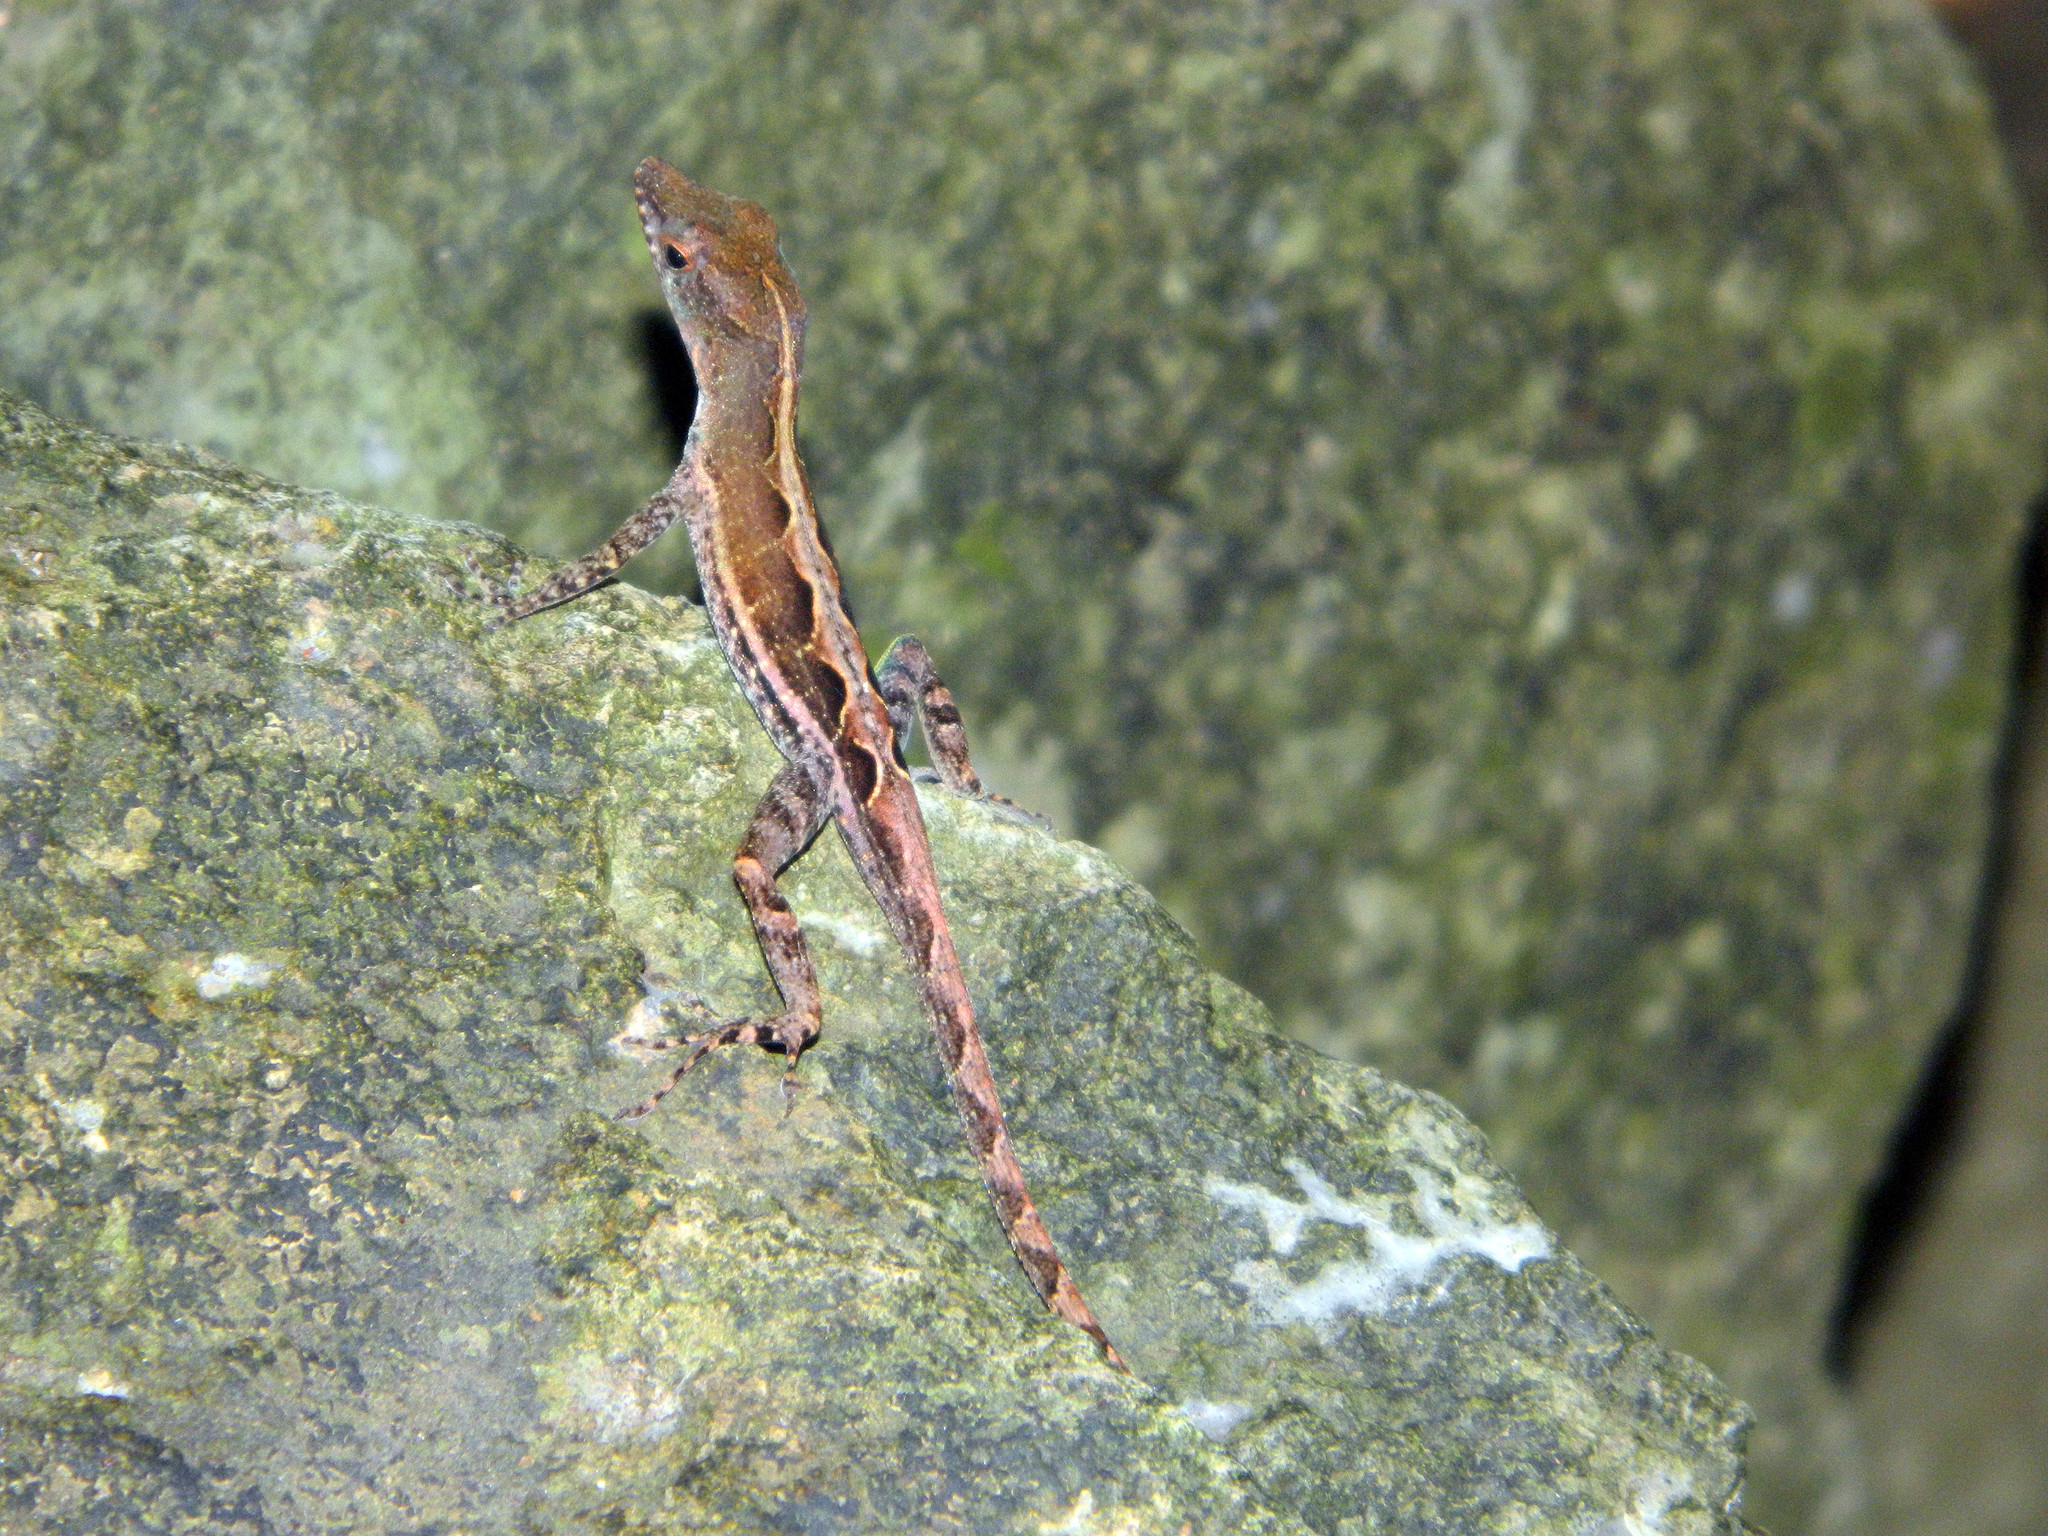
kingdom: Animalia
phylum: Chordata
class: Squamata
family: Dactyloidae
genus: Anolis
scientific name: Anolis wattsii
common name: Antigua bank bush anole
